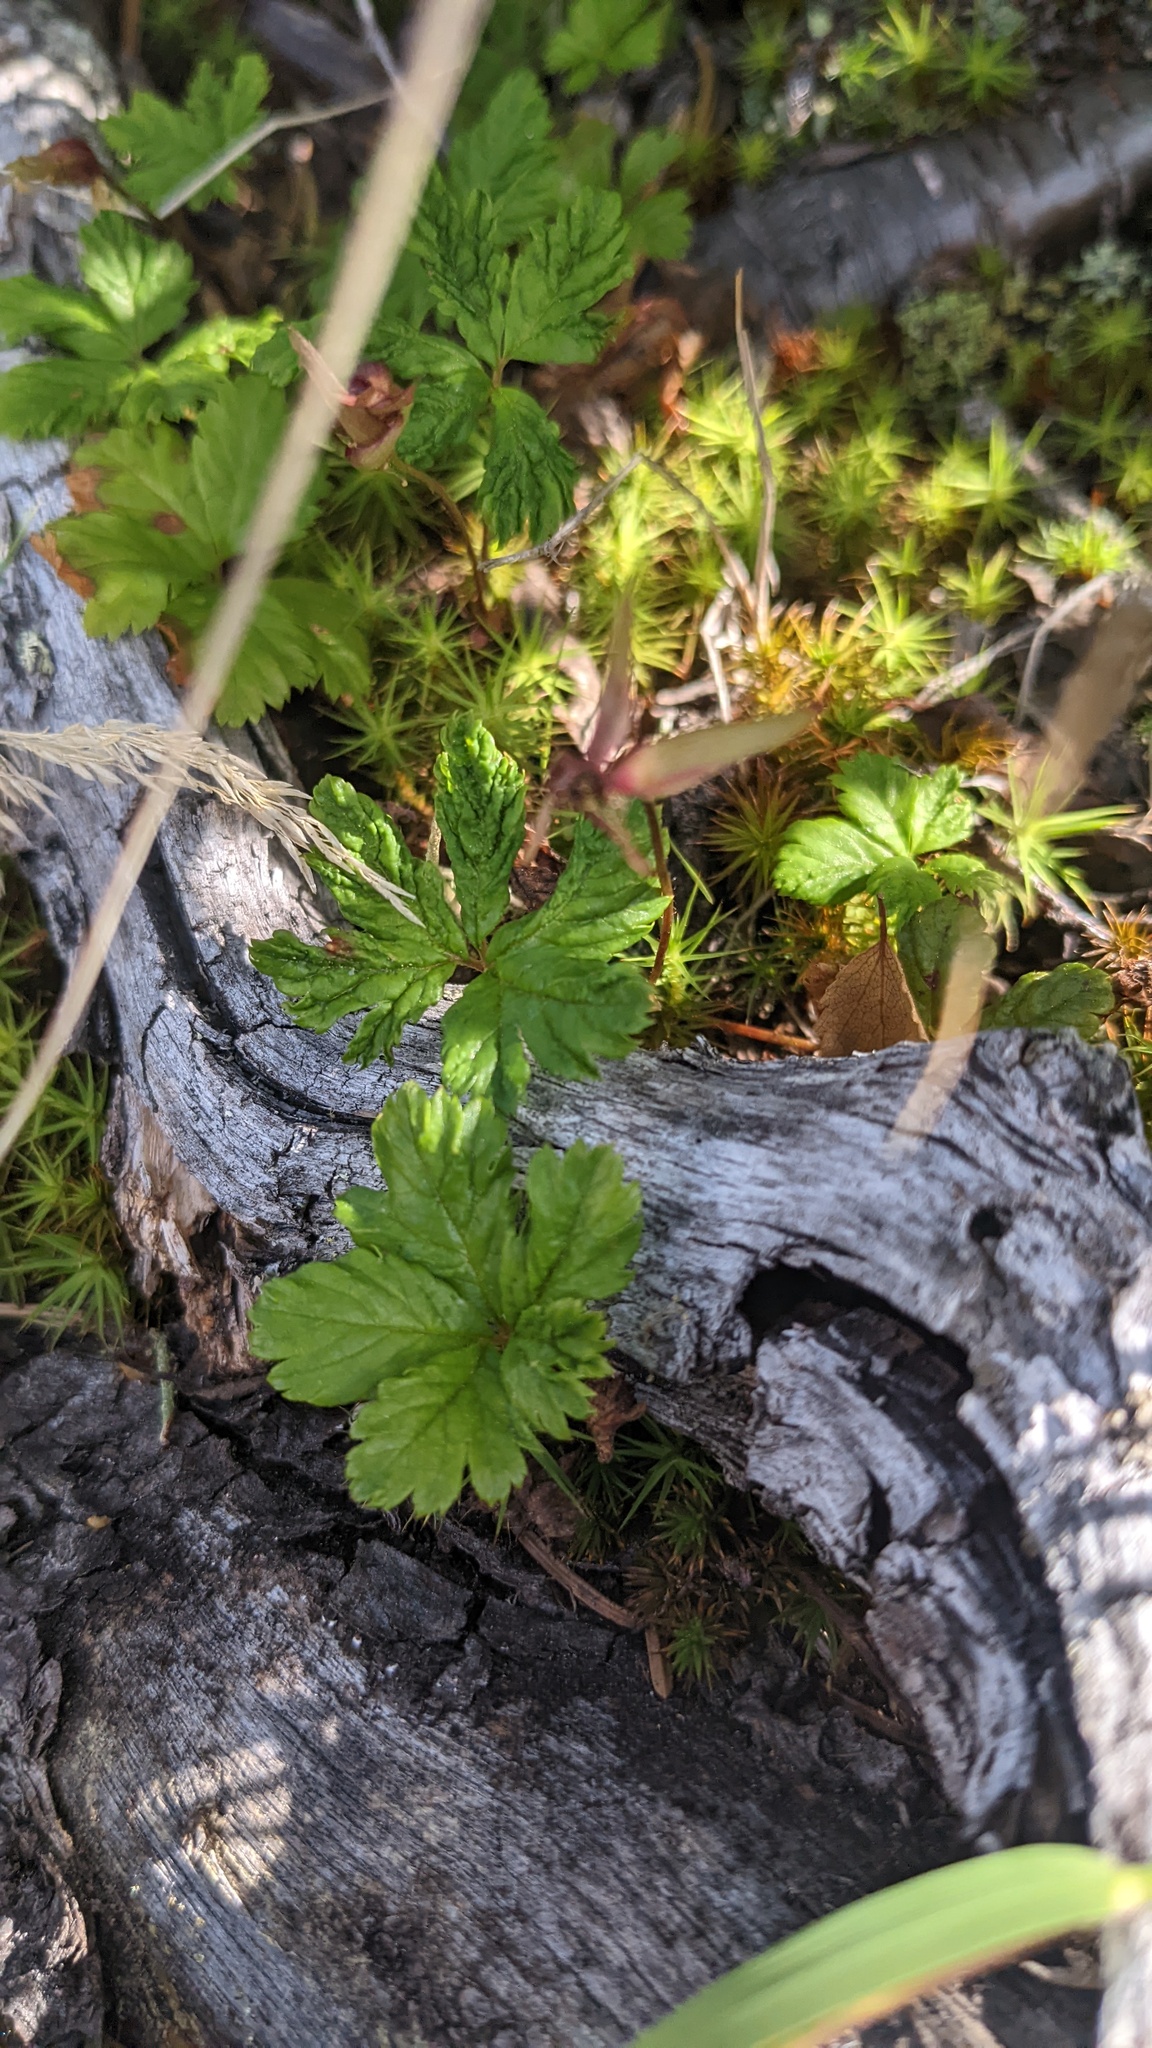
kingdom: Plantae
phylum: Tracheophyta
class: Magnoliopsida
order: Rosales
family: Rosaceae
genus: Rubus
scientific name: Rubus pedatus
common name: Creeping raspberry
